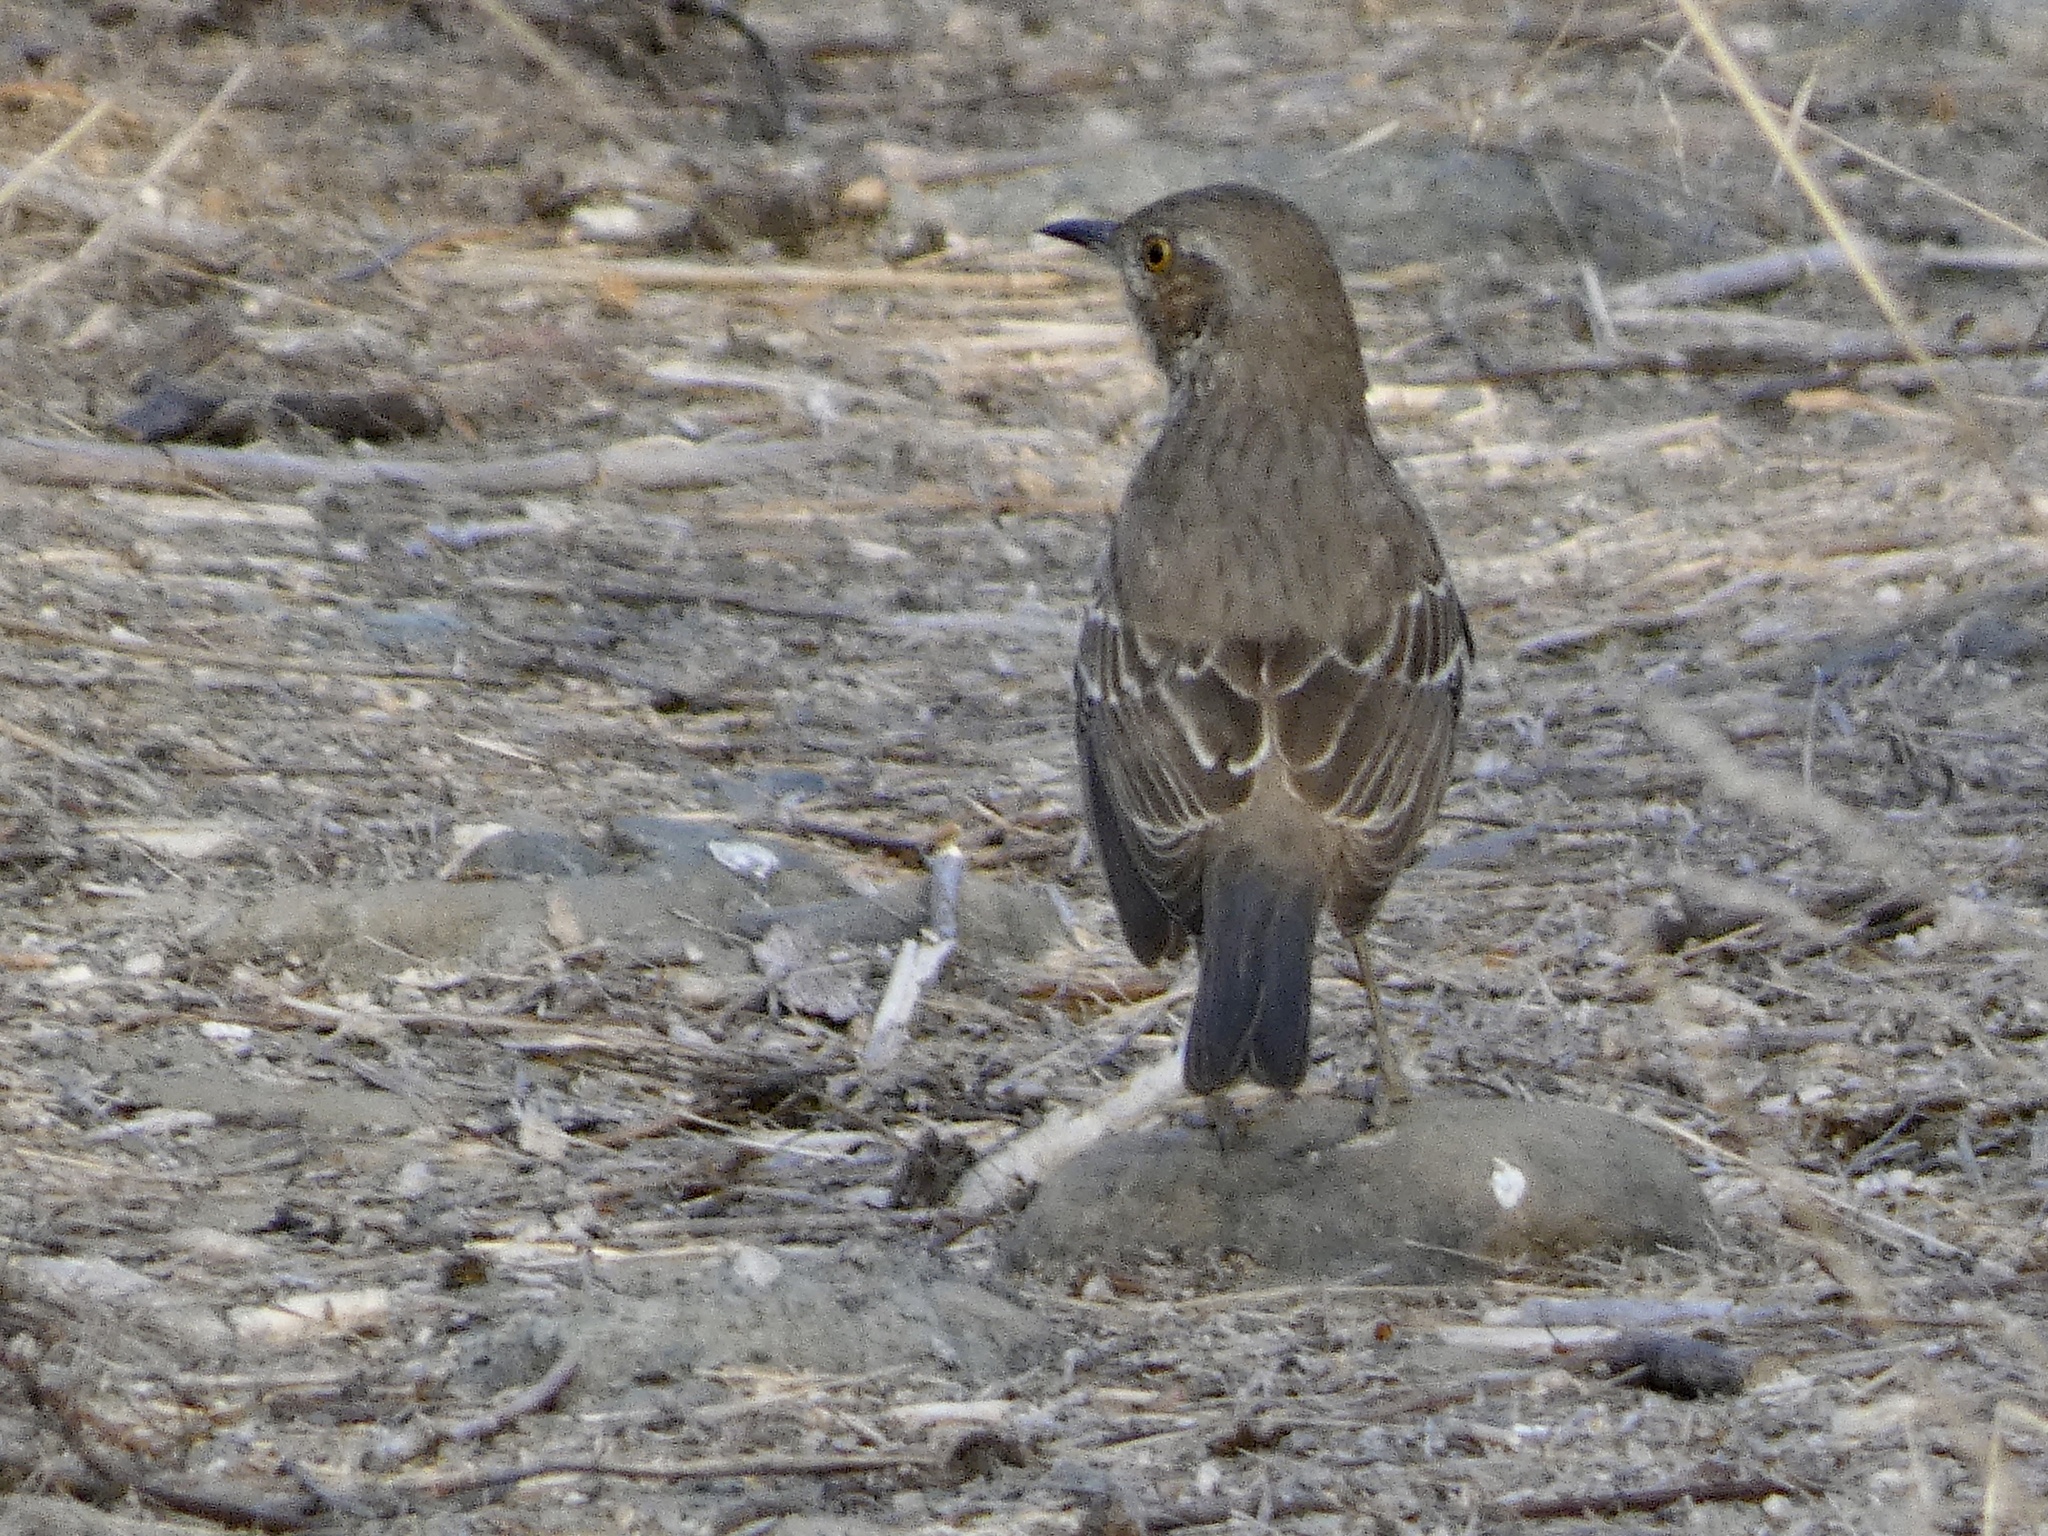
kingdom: Animalia
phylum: Chordata
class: Aves
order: Passeriformes
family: Mimidae
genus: Oreoscoptes
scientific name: Oreoscoptes montanus
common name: Sage thrasher
